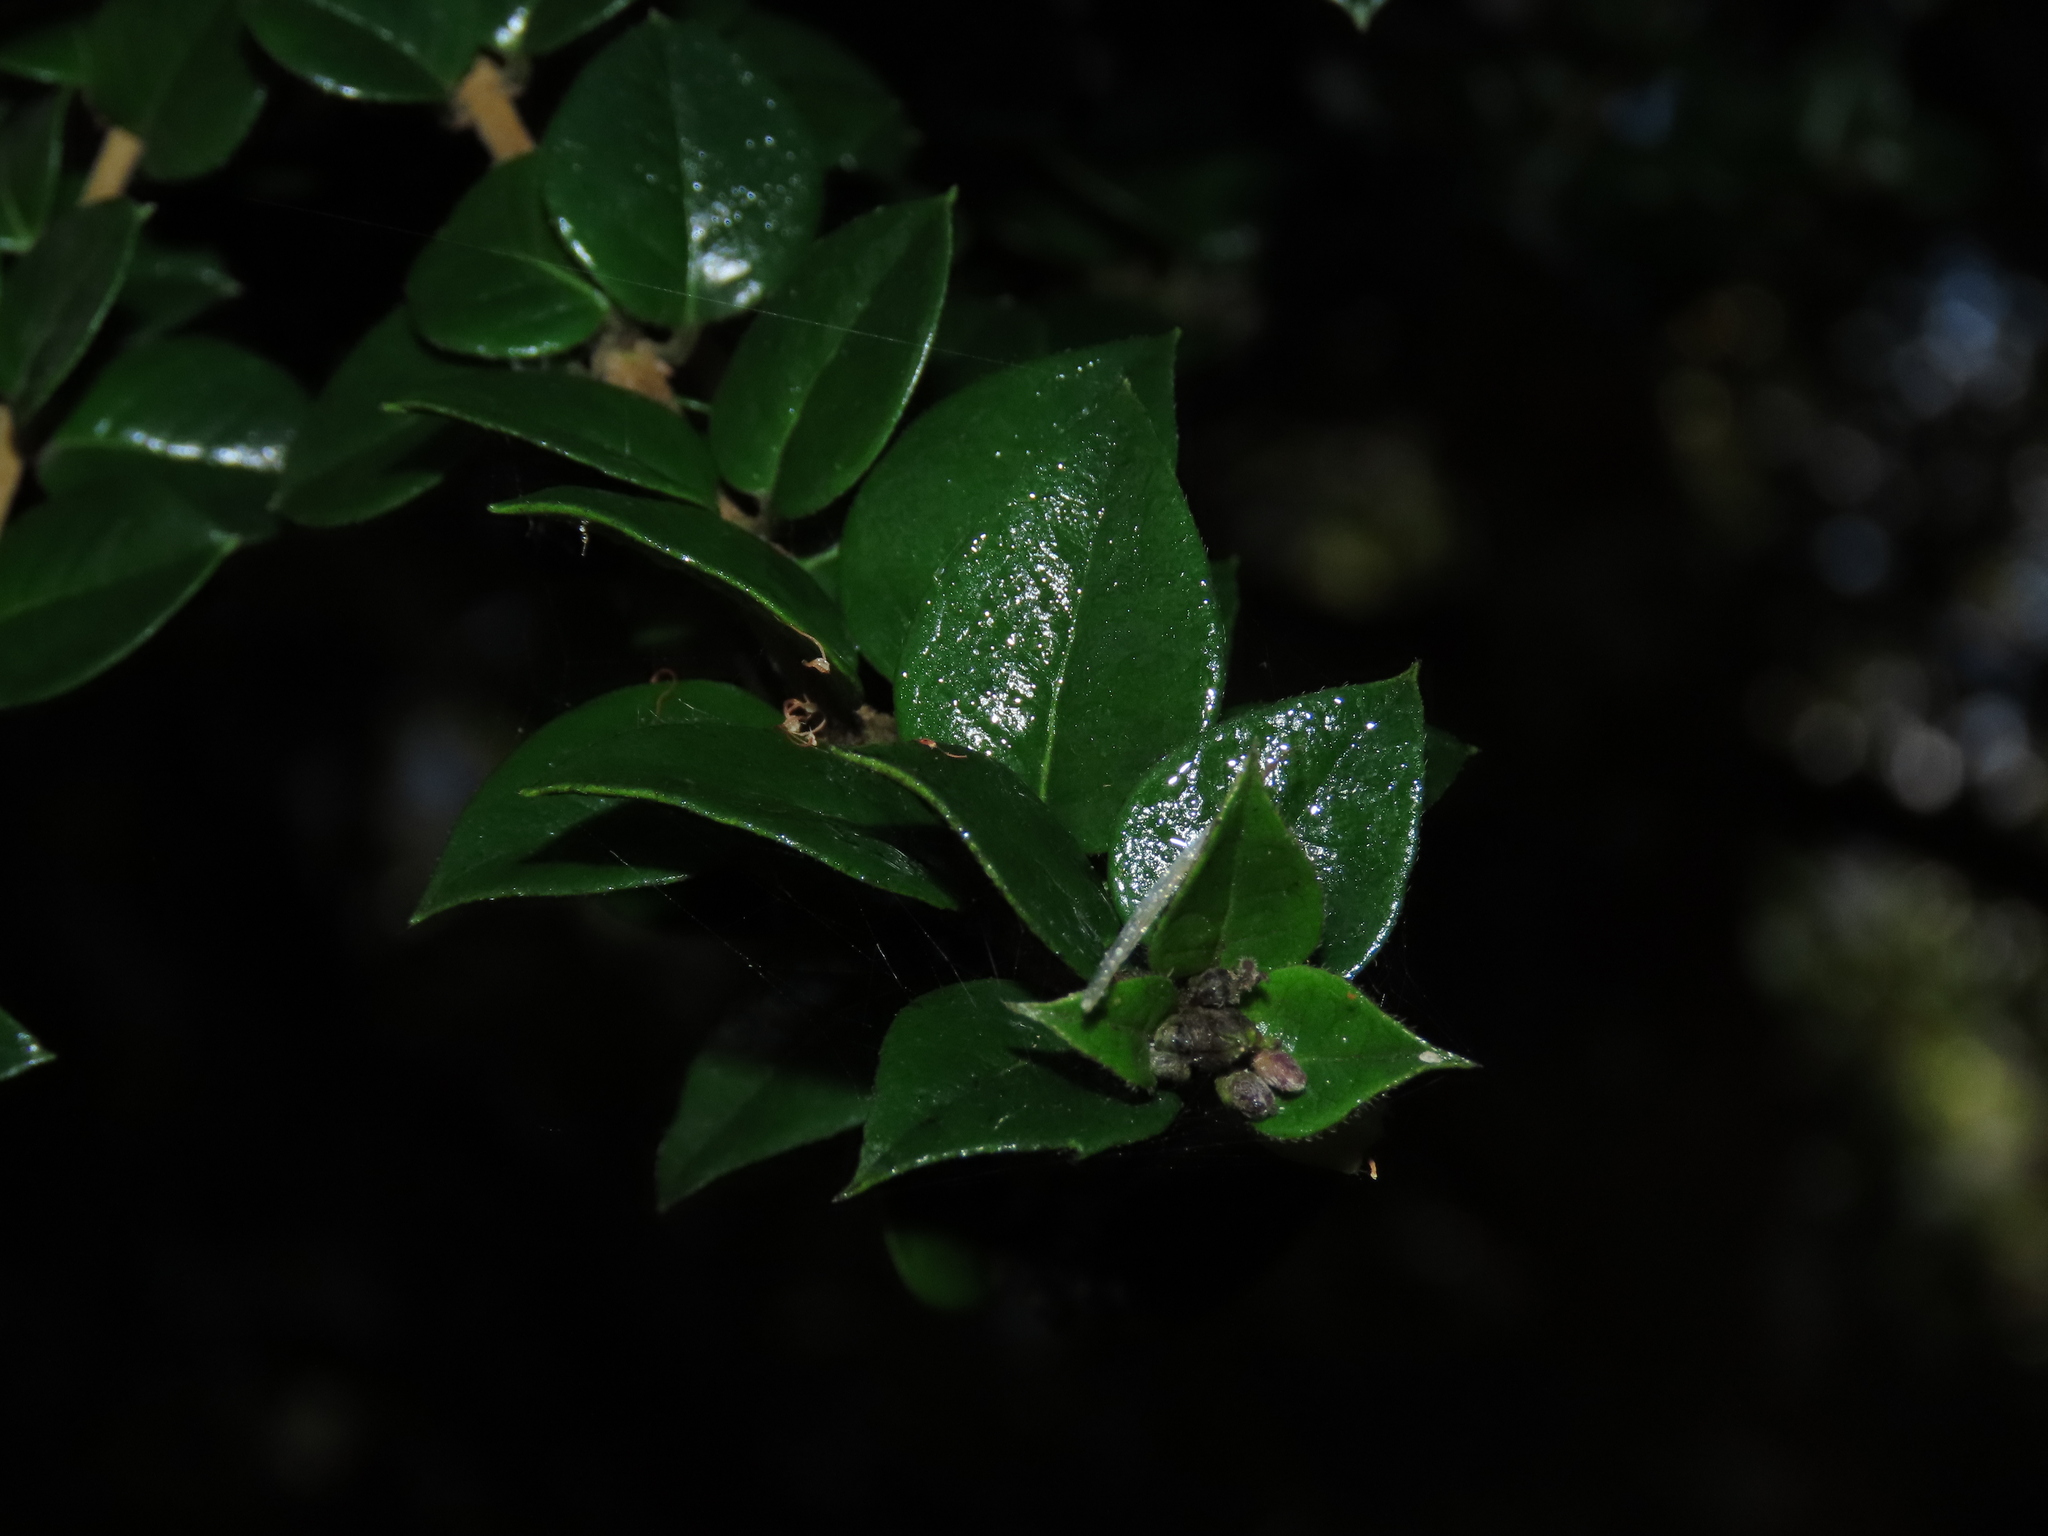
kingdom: Plantae
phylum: Tracheophyta
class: Magnoliopsida
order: Lamiales
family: Verbenaceae
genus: Rhaphithamnus
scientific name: Rhaphithamnus spinosus
